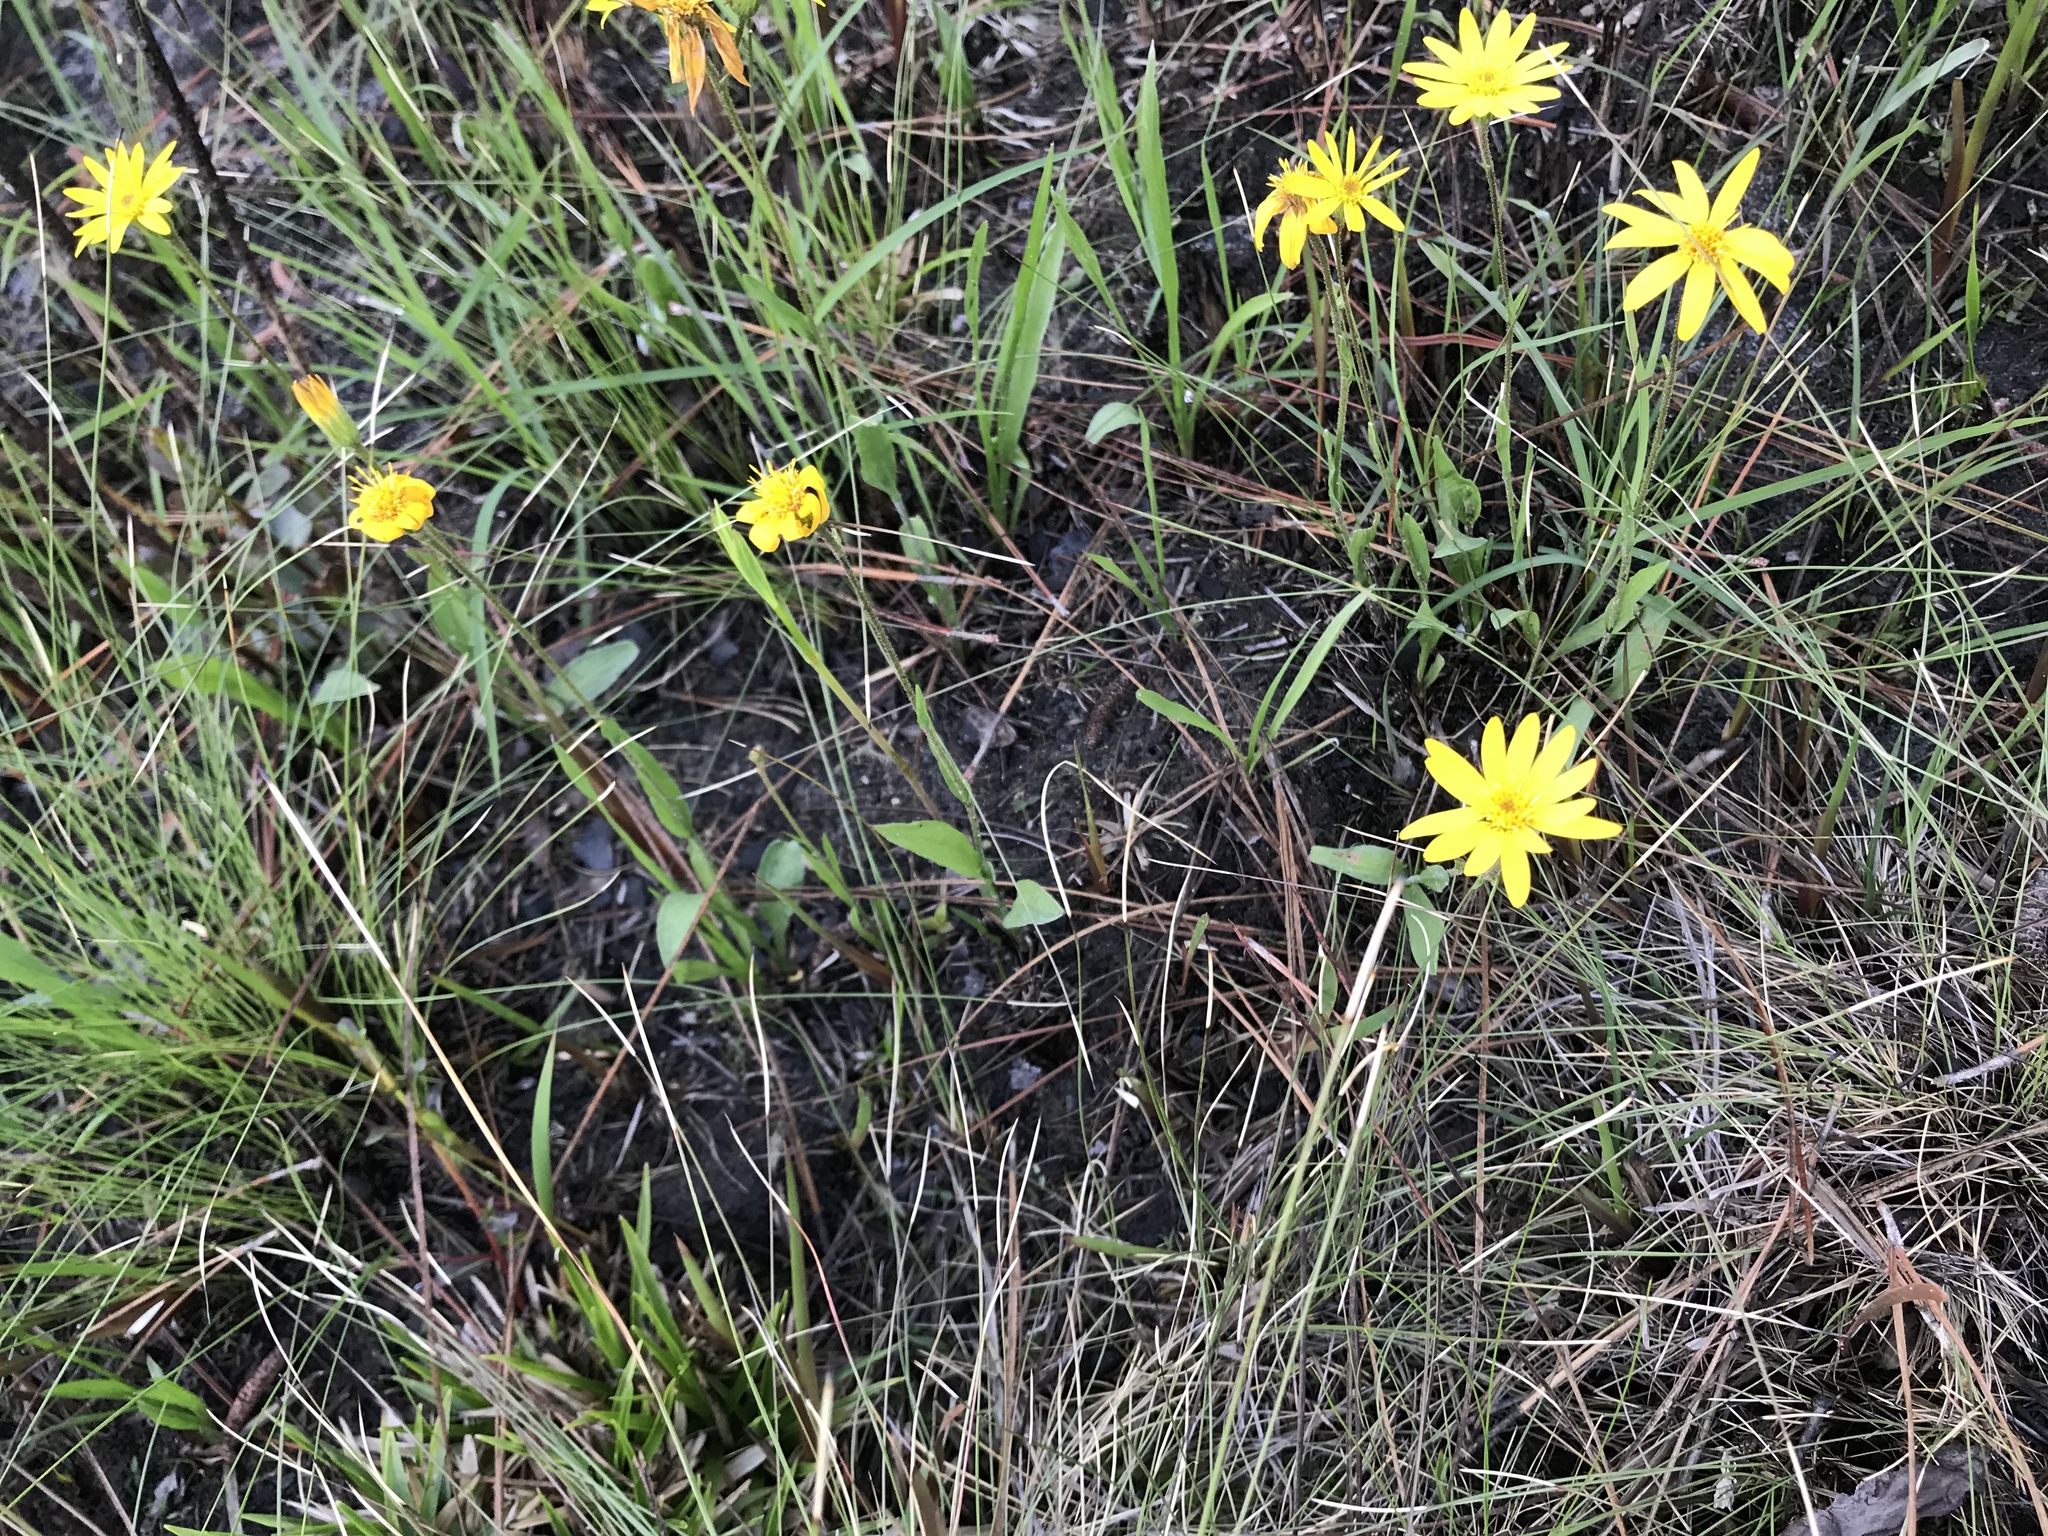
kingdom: Plantae
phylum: Tracheophyta
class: Magnoliopsida
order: Asterales
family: Asteraceae
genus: Pityopsis
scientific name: Pityopsis oligantha
